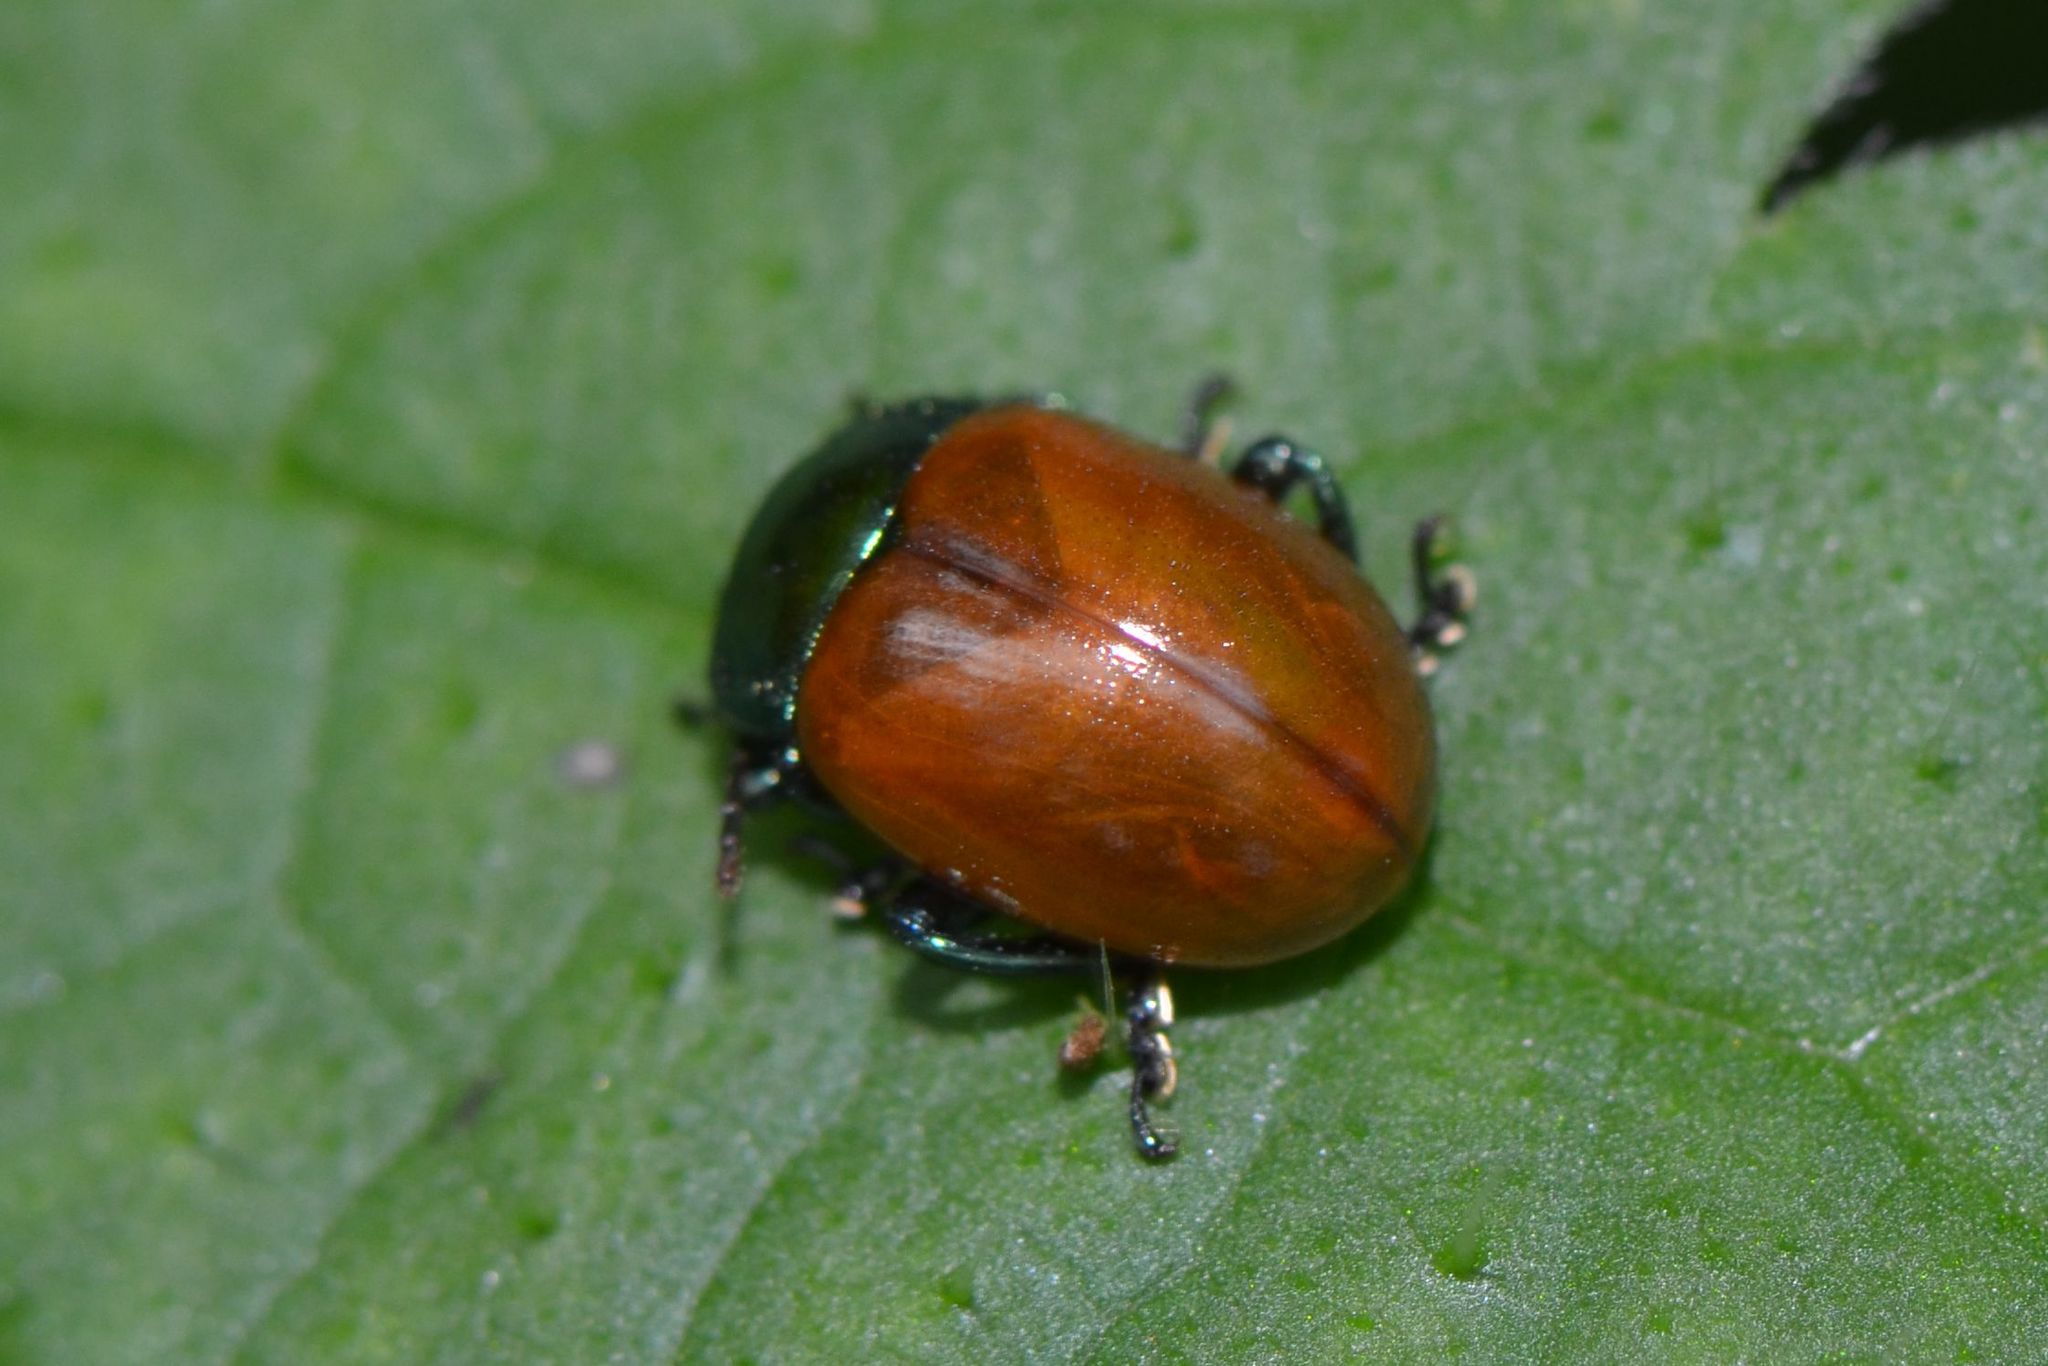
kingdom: Animalia
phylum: Arthropoda
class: Insecta
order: Coleoptera
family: Chrysomelidae
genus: Chrysomela
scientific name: Chrysomela polita
